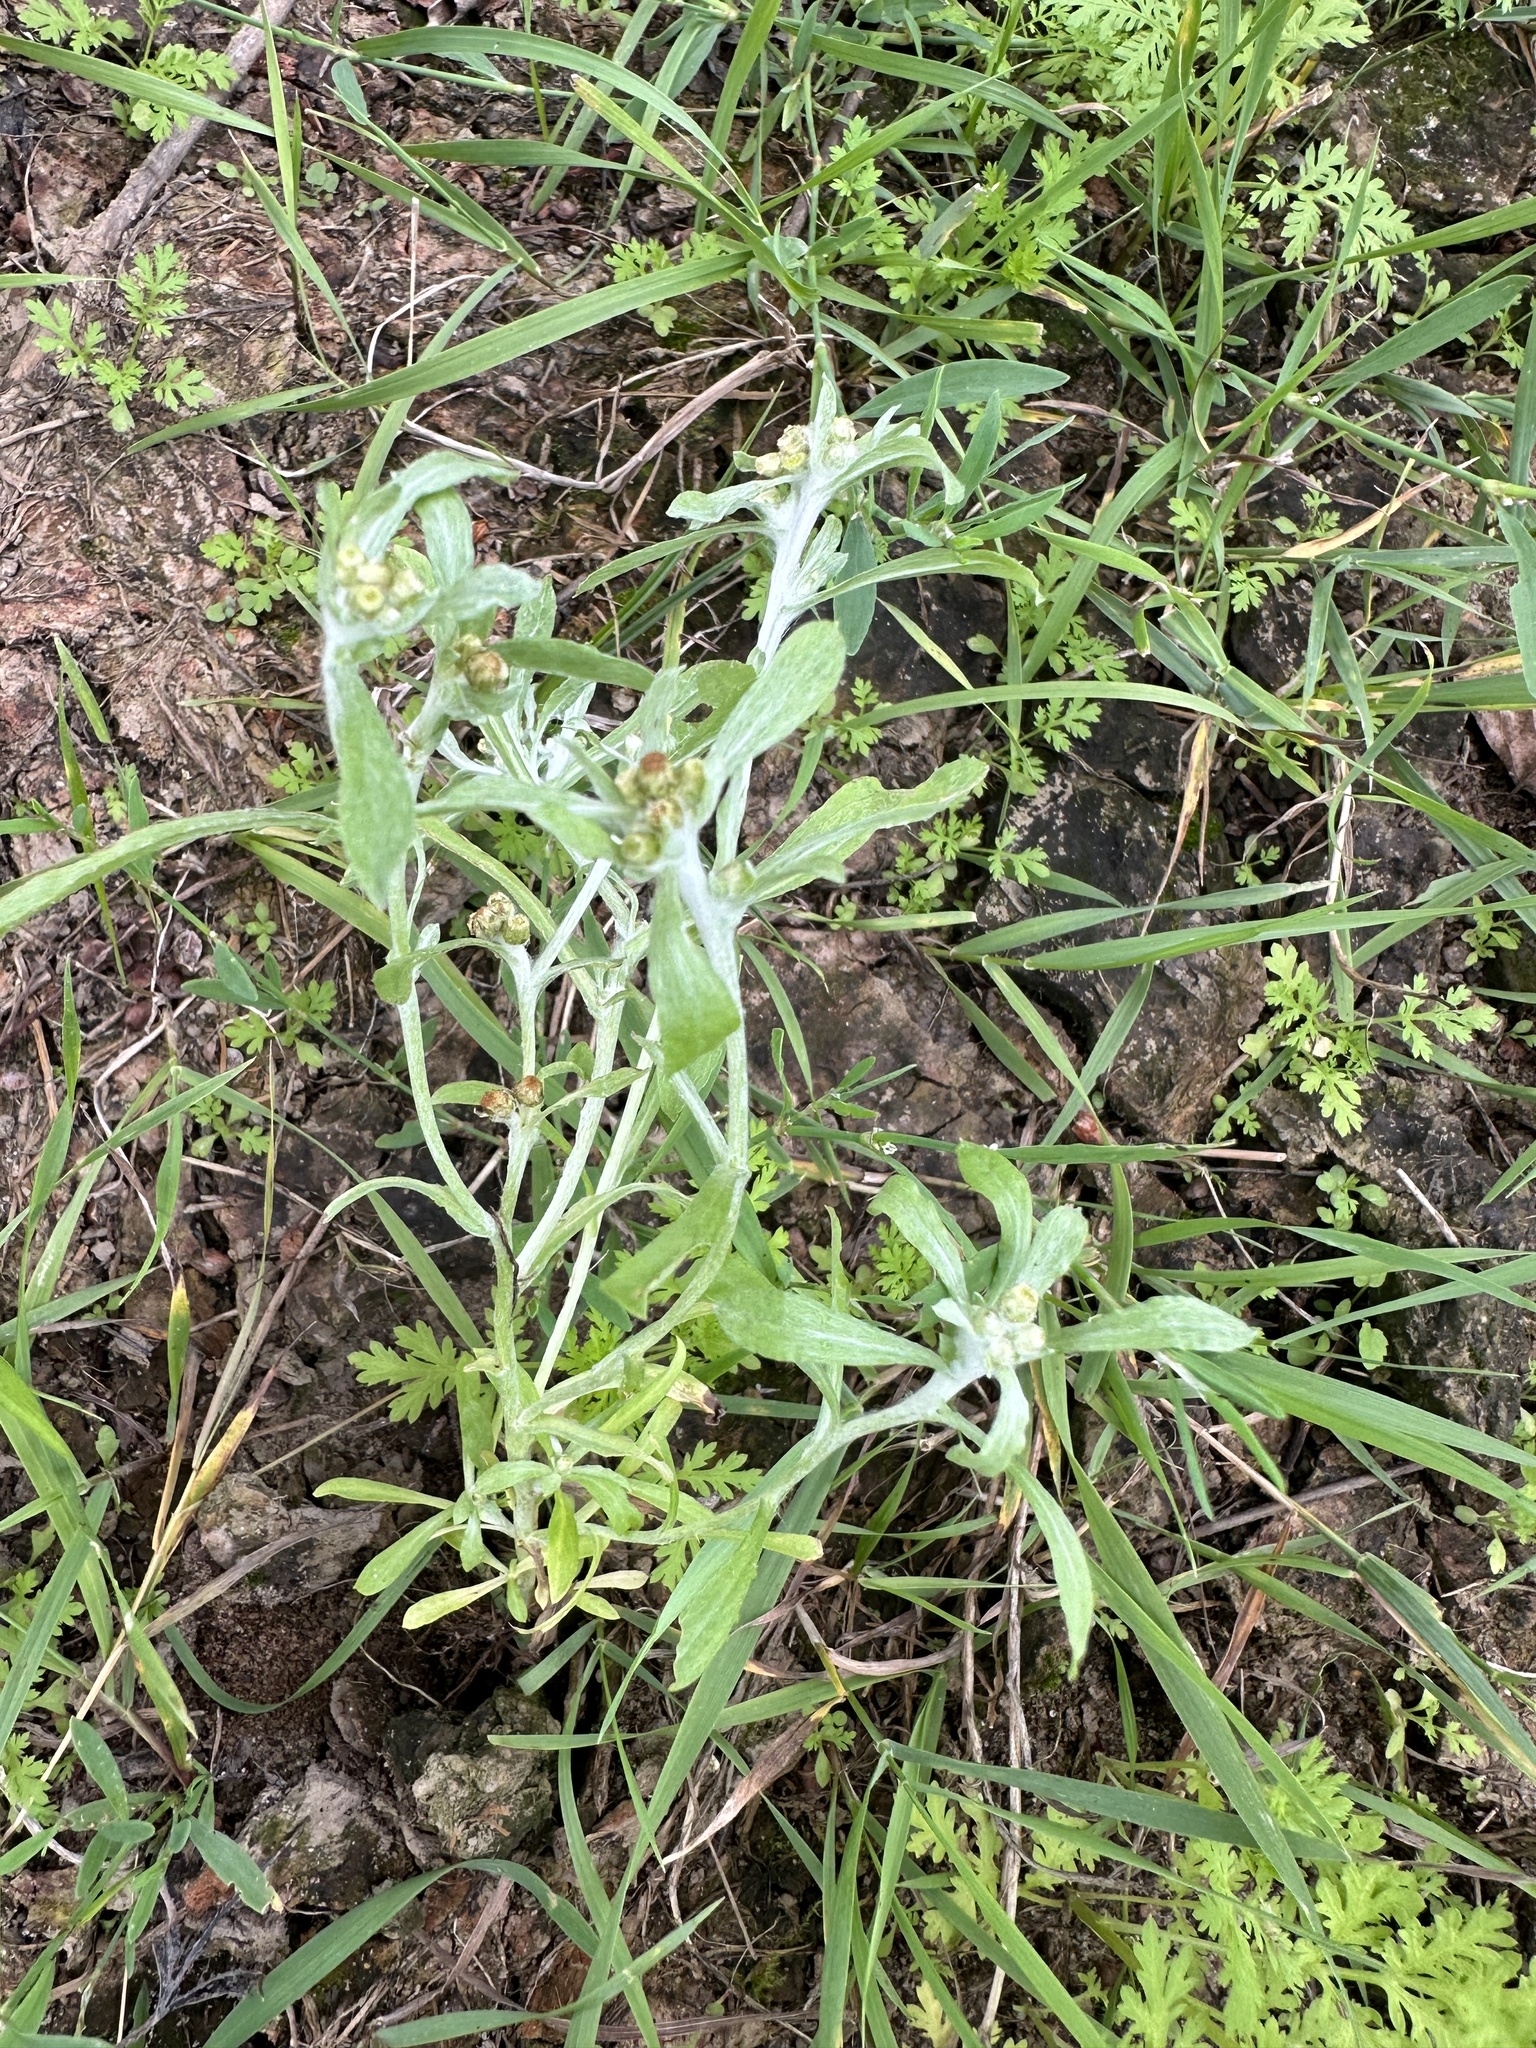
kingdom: Plantae
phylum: Tracheophyta
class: Magnoliopsida
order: Asterales
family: Asteraceae
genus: Gnaphalium
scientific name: Gnaphalium uliginosum
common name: Marsh cudweed
